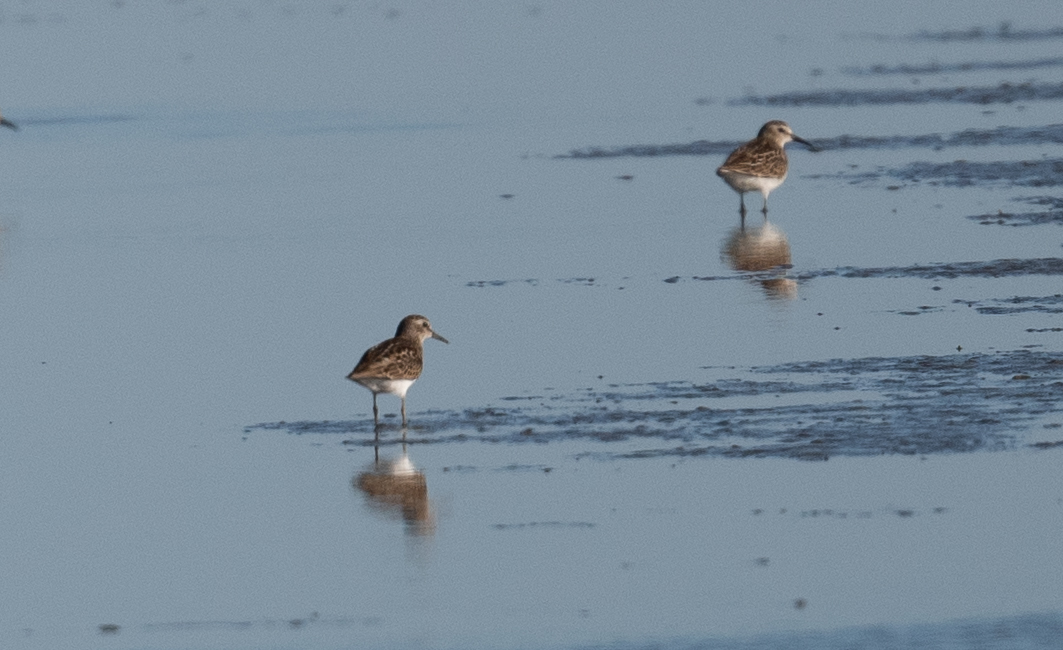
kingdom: Animalia
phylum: Chordata
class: Aves
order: Charadriiformes
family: Scolopacidae
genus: Calidris
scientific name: Calidris minutilla
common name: Least sandpiper
